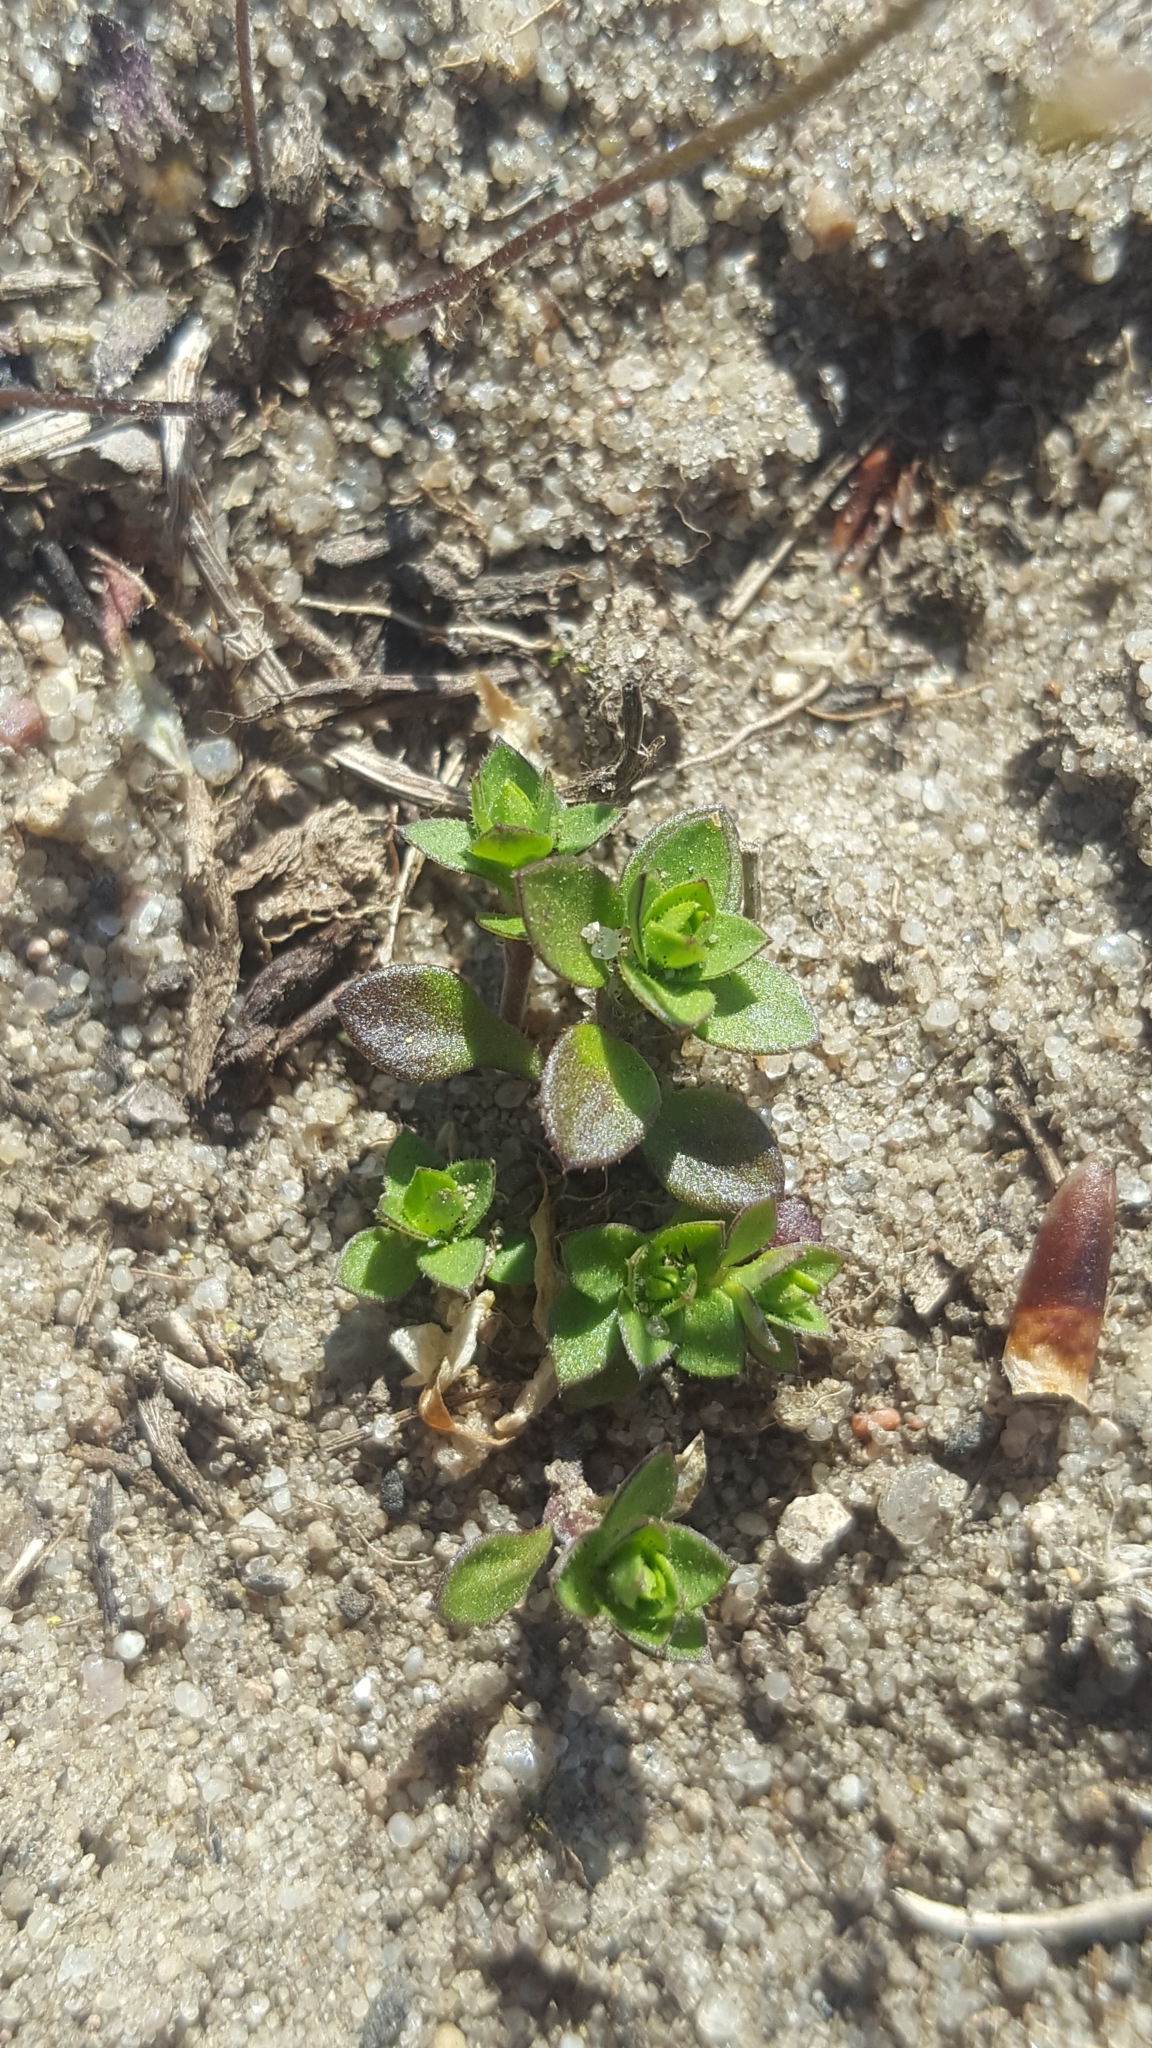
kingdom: Plantae
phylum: Tracheophyta
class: Magnoliopsida
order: Caryophyllales
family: Caryophyllaceae
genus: Arenaria
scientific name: Arenaria serpyllifolia
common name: Thyme-leaved sandwort
